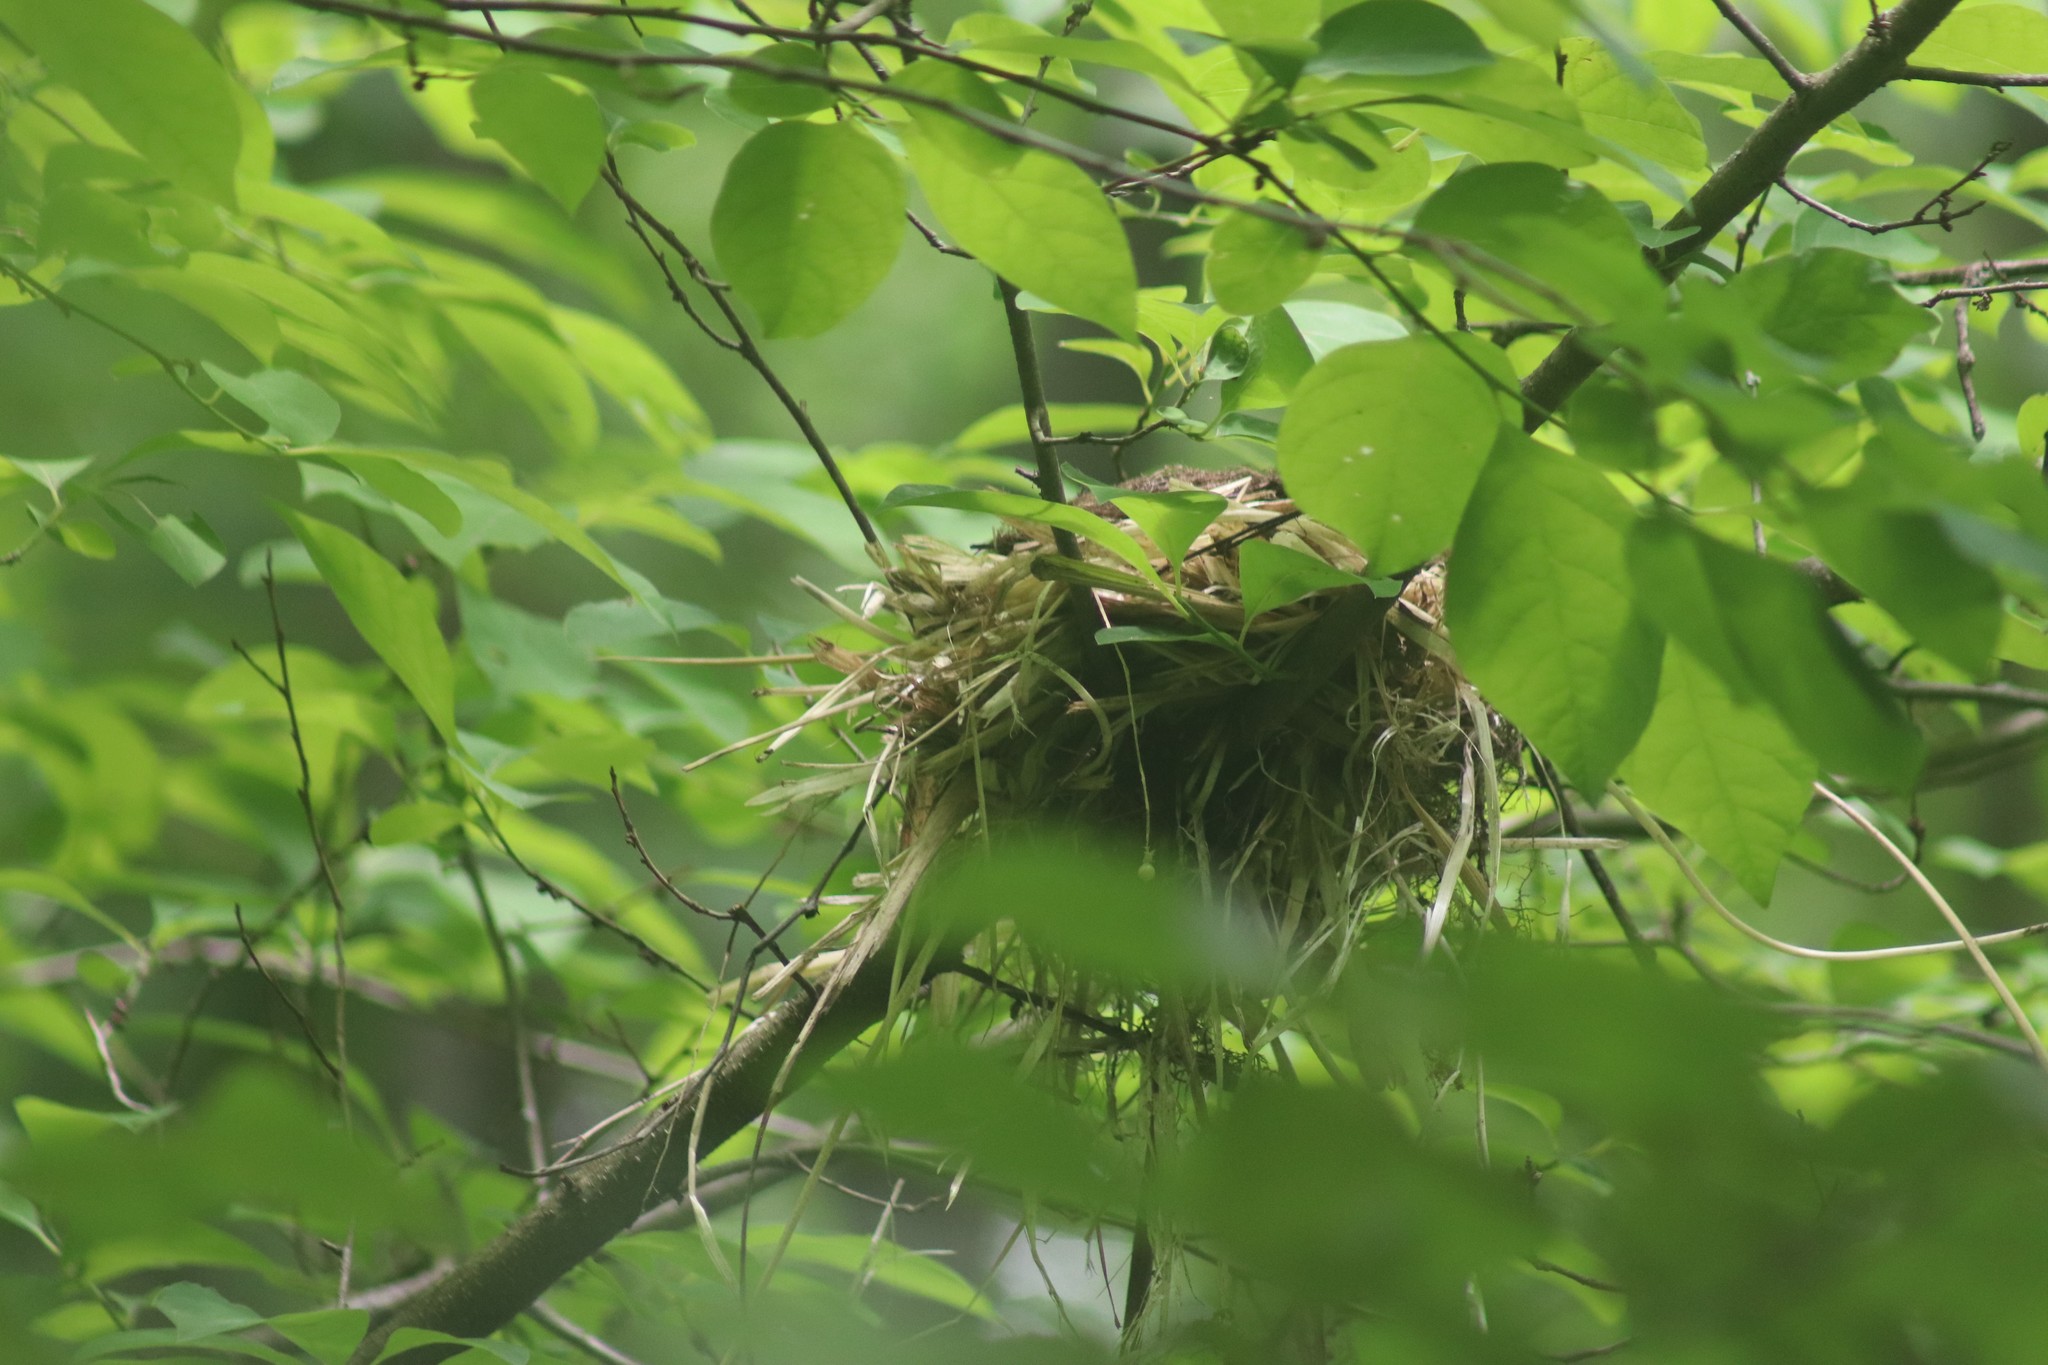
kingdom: Animalia
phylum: Chordata
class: Aves
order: Passeriformes
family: Turdidae
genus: Hylocichla
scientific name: Hylocichla mustelina
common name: Wood thrush
